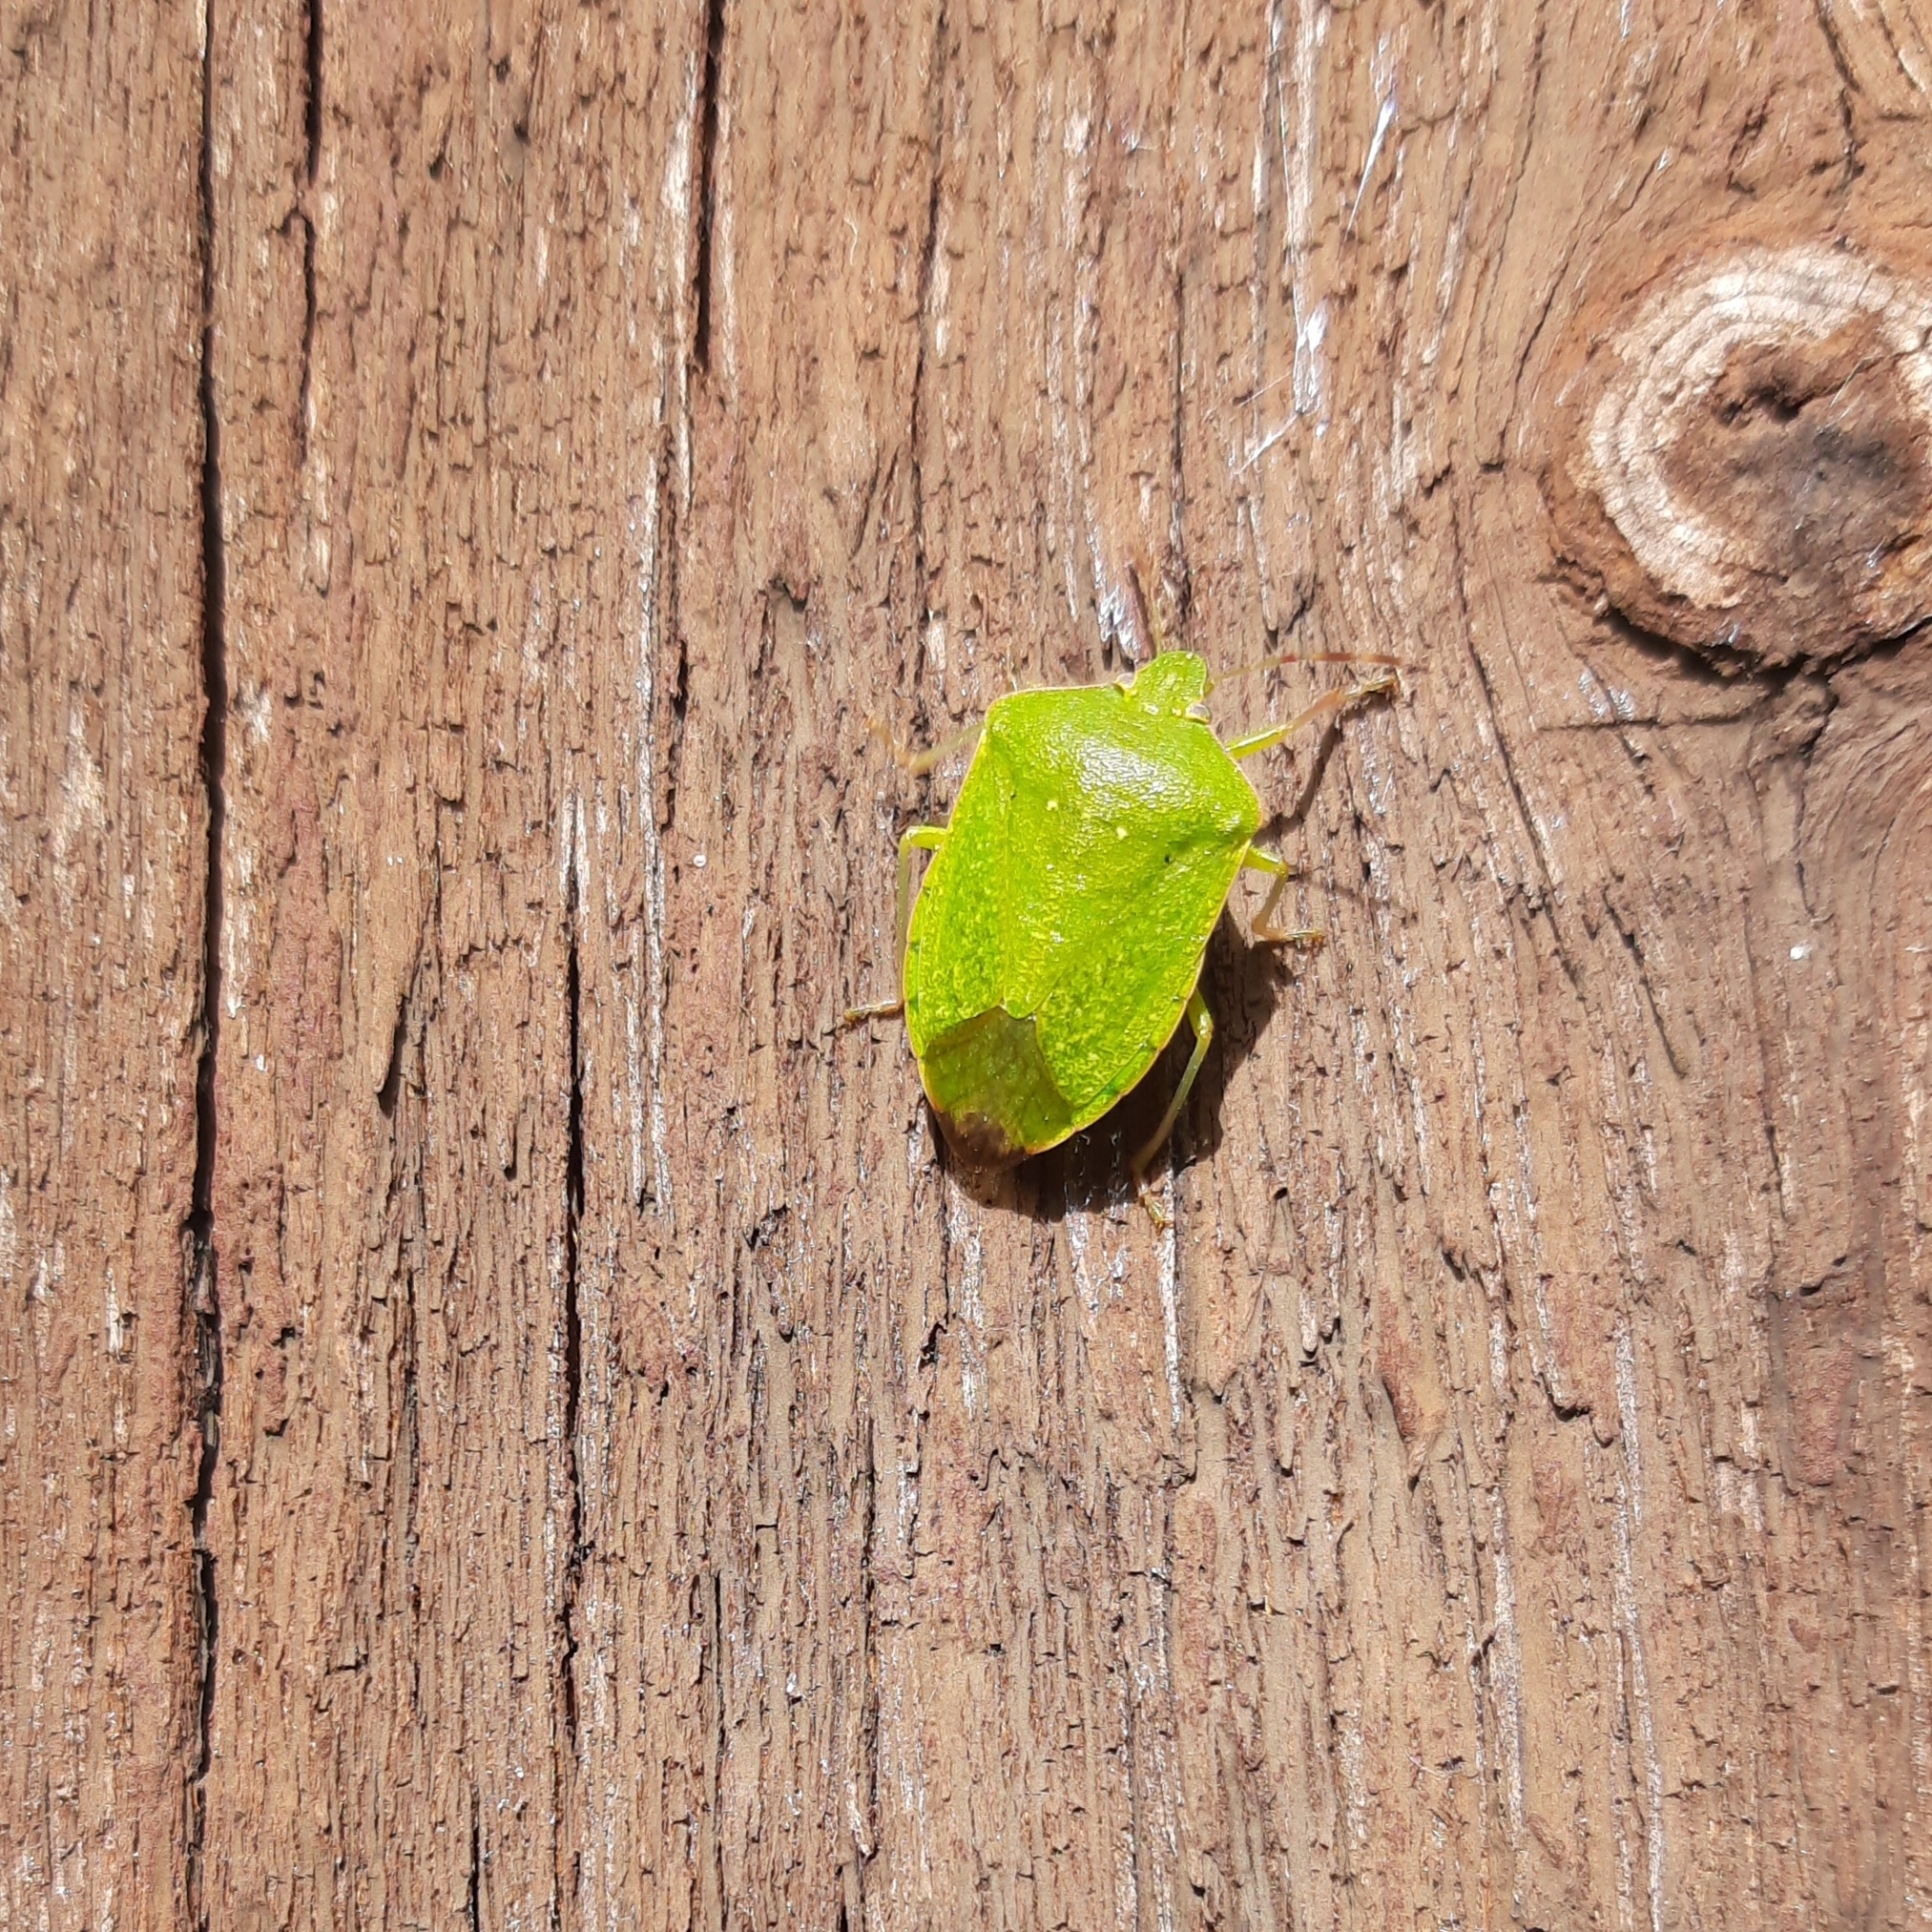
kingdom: Animalia
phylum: Arthropoda
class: Insecta
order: Hemiptera
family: Pentatomidae
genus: Nezara
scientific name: Nezara viridula
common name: Southern green stink bug
